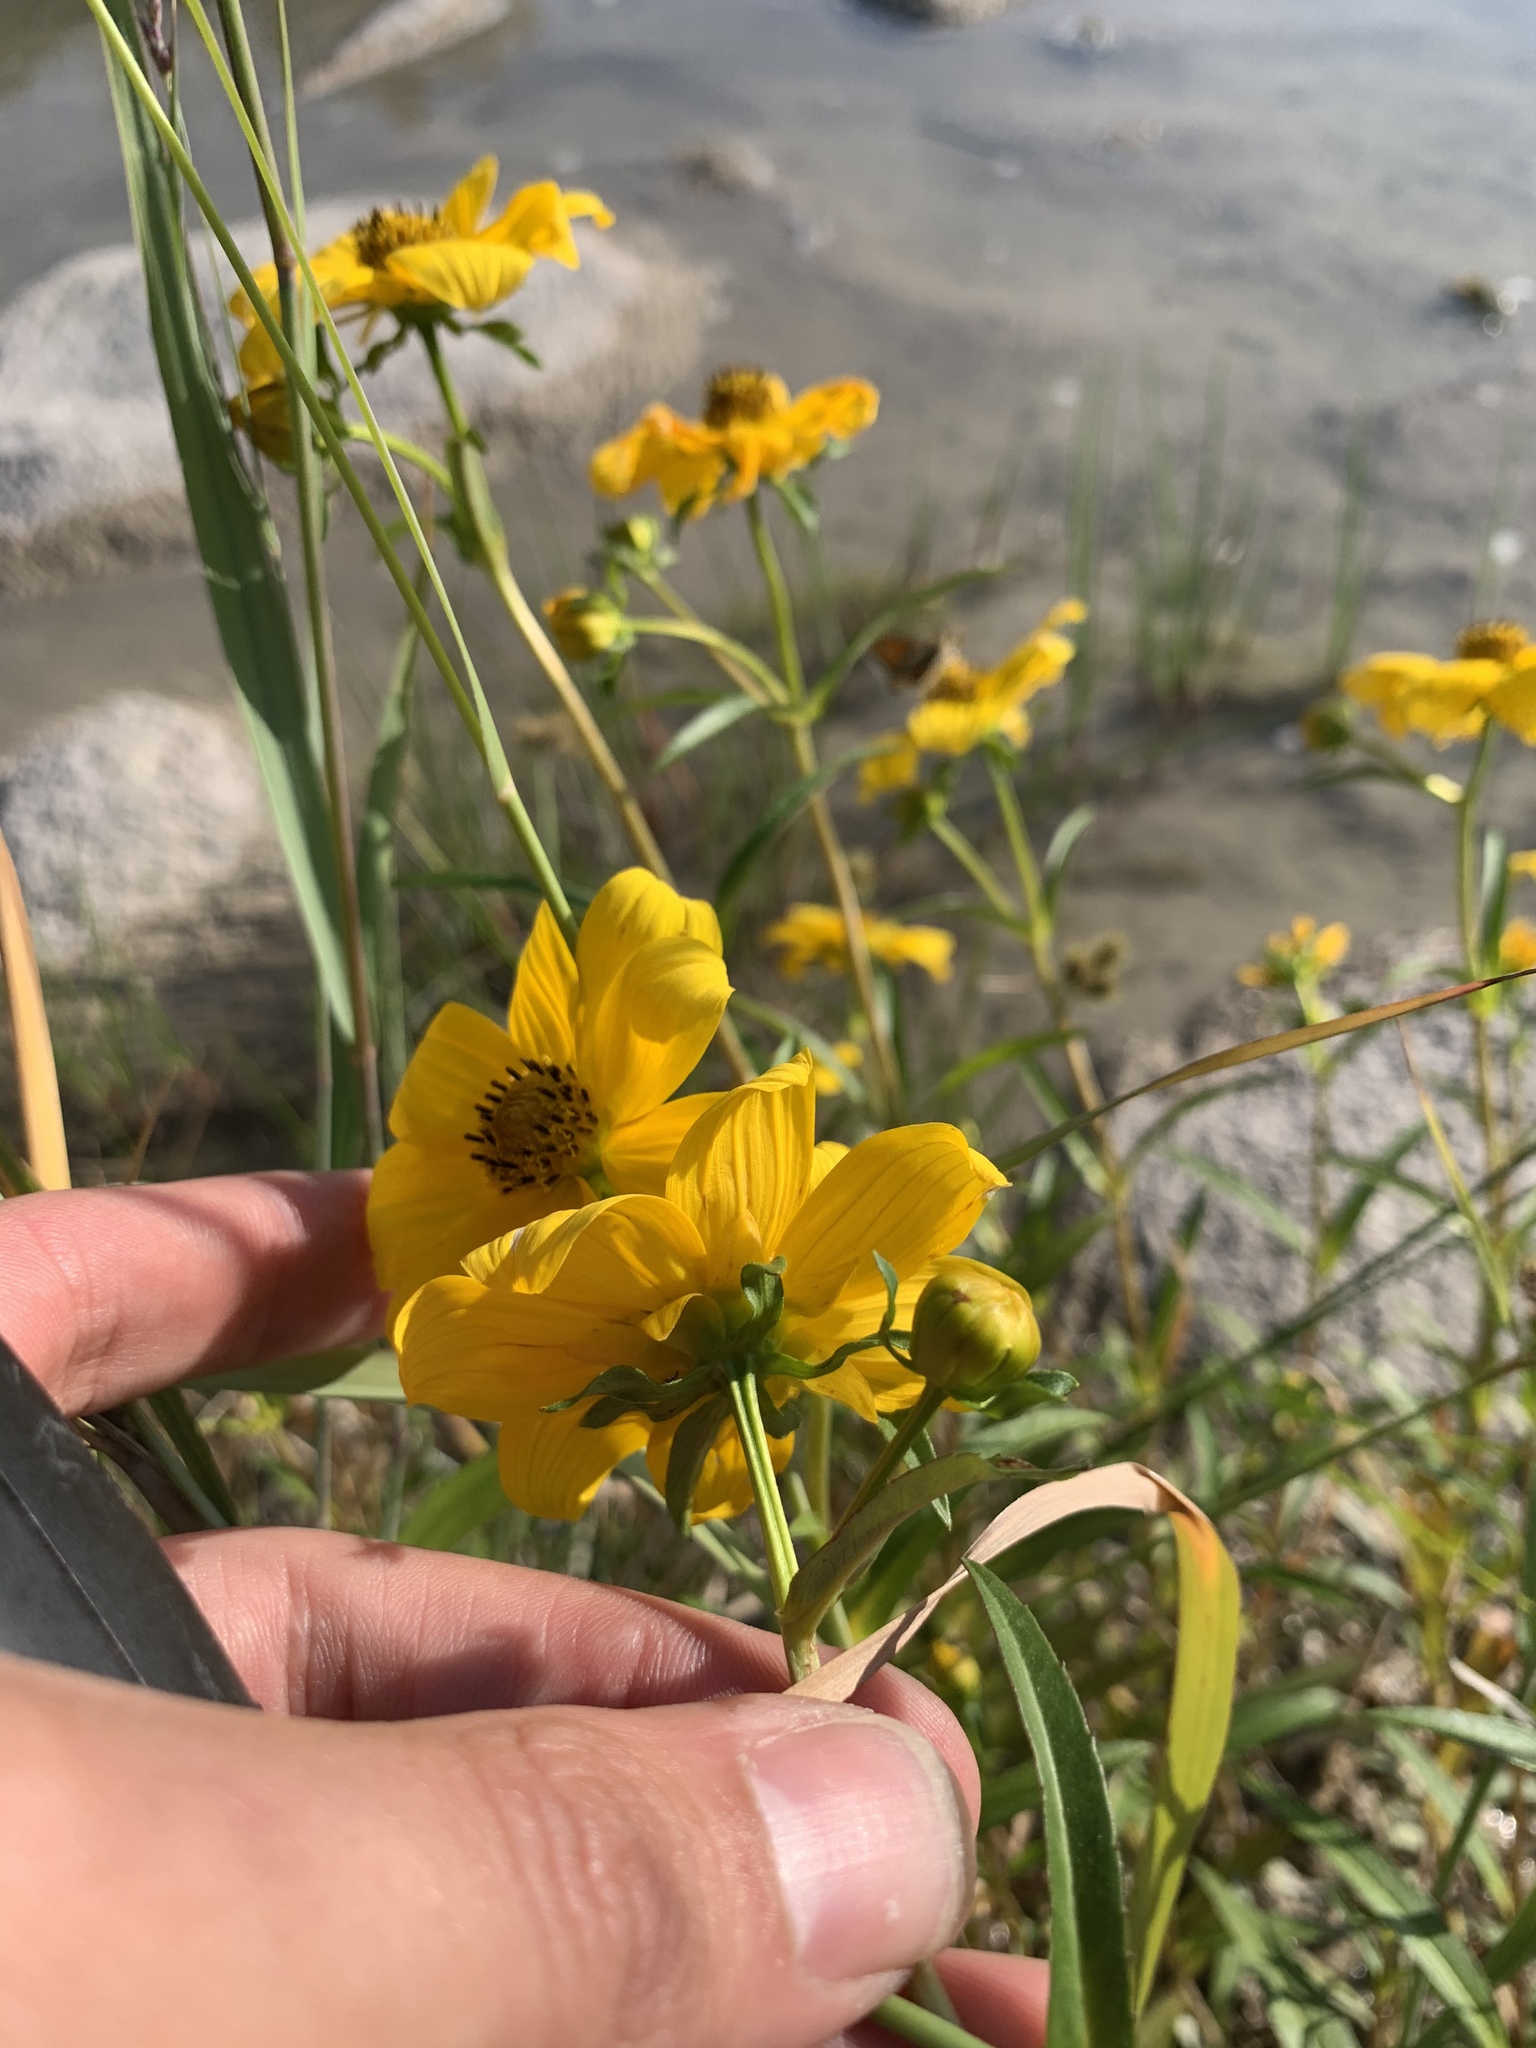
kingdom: Plantae
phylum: Tracheophyta
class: Magnoliopsida
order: Asterales
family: Asteraceae
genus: Bidens
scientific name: Bidens laevis
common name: Larger bur-marigold
